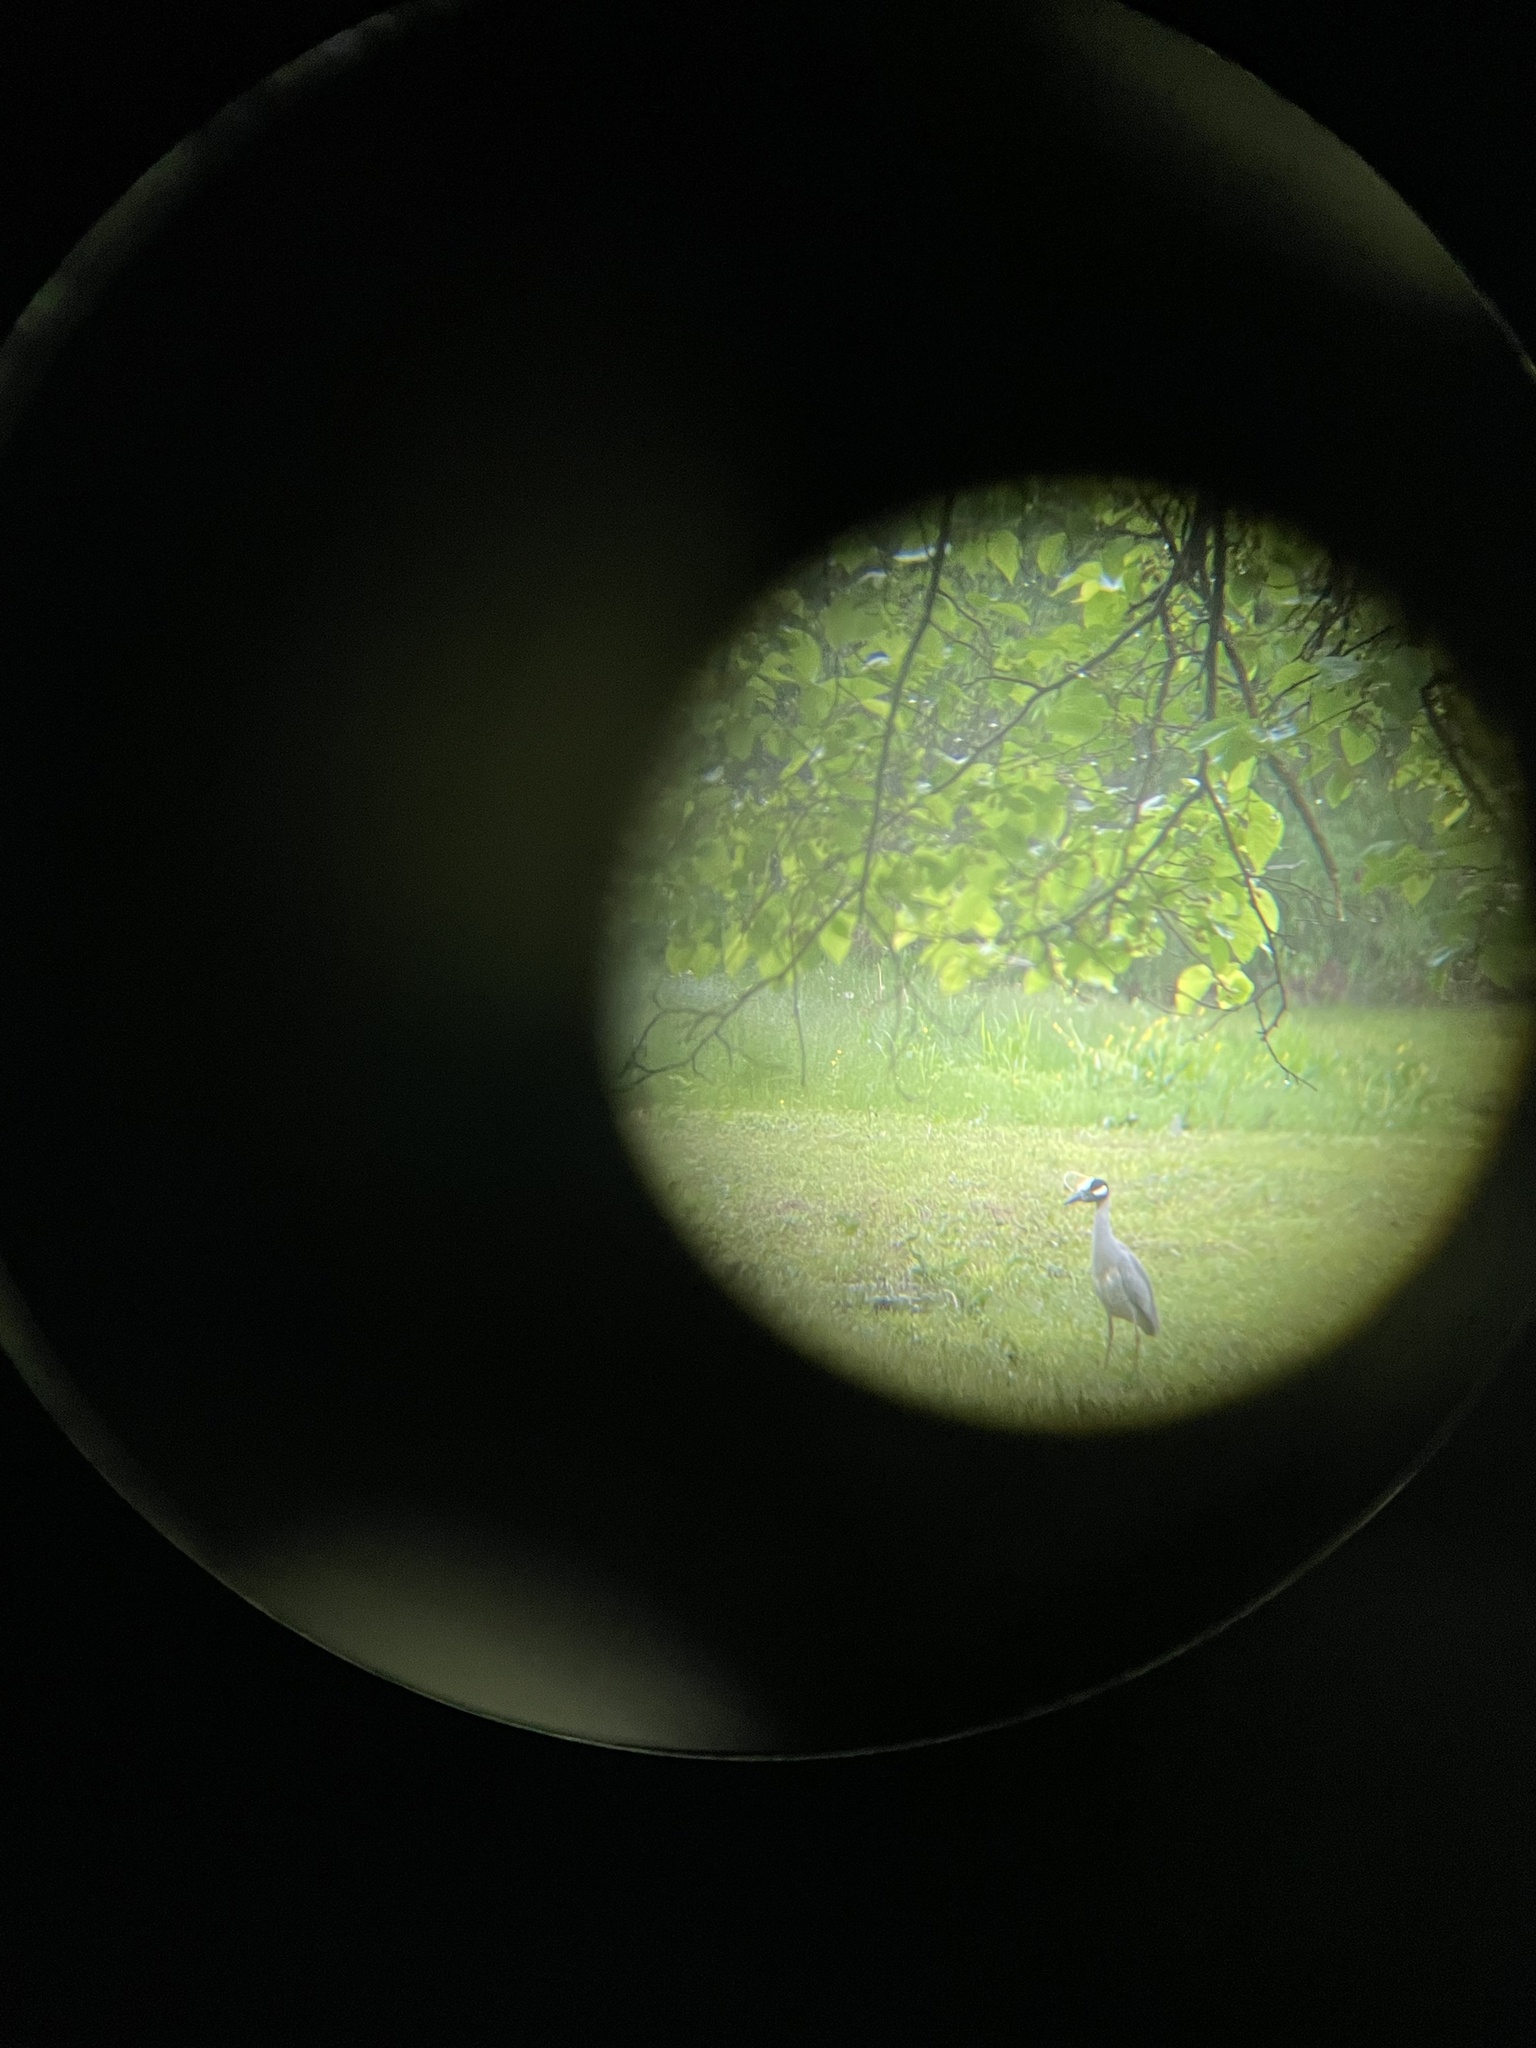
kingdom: Animalia
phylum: Chordata
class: Aves
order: Pelecaniformes
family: Ardeidae
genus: Nyctanassa
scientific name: Nyctanassa violacea
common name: Yellow-crowned night heron
